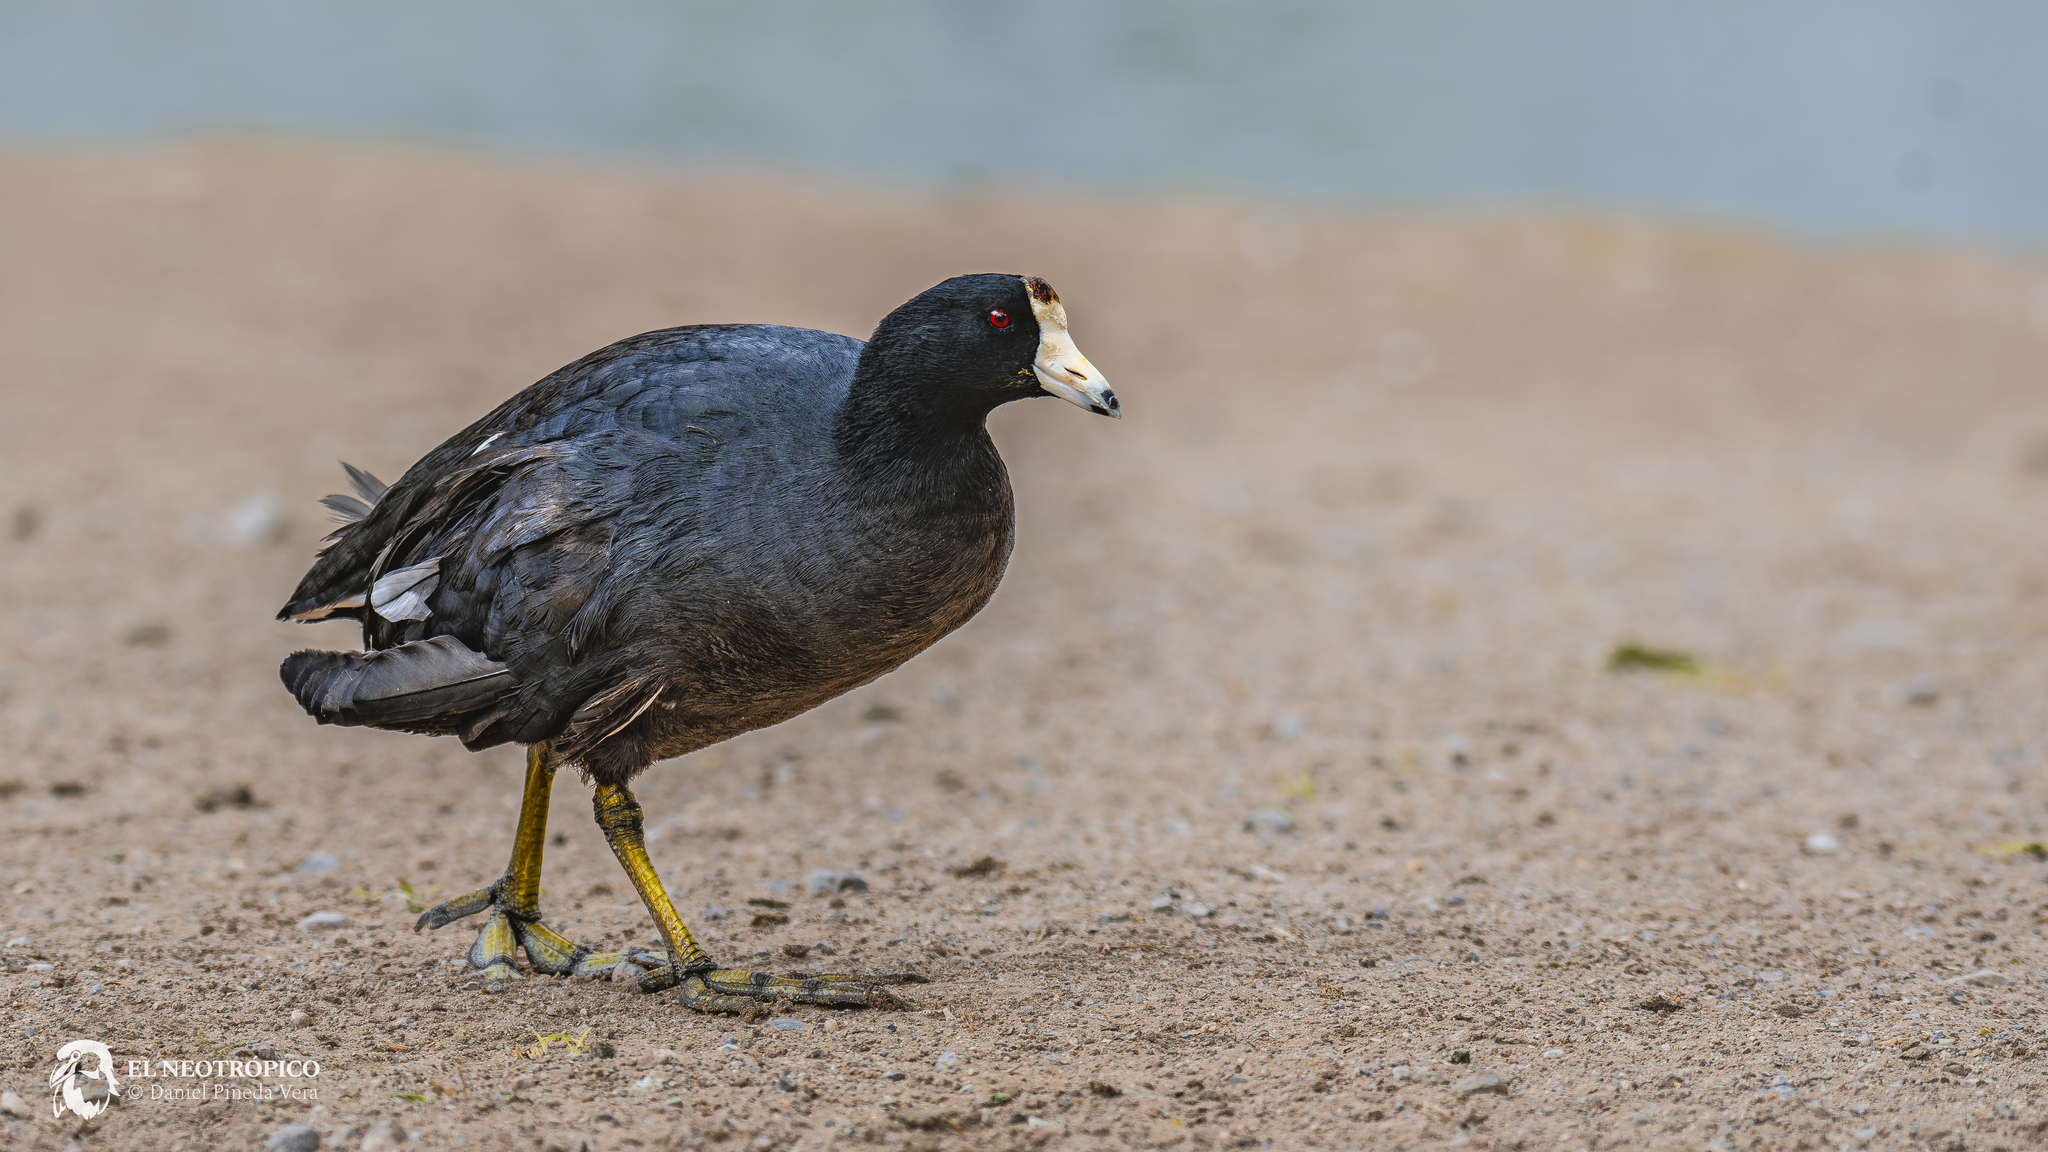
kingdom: Animalia
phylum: Chordata
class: Aves
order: Gruiformes
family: Rallidae
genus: Fulica
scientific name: Fulica americana
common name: American coot
